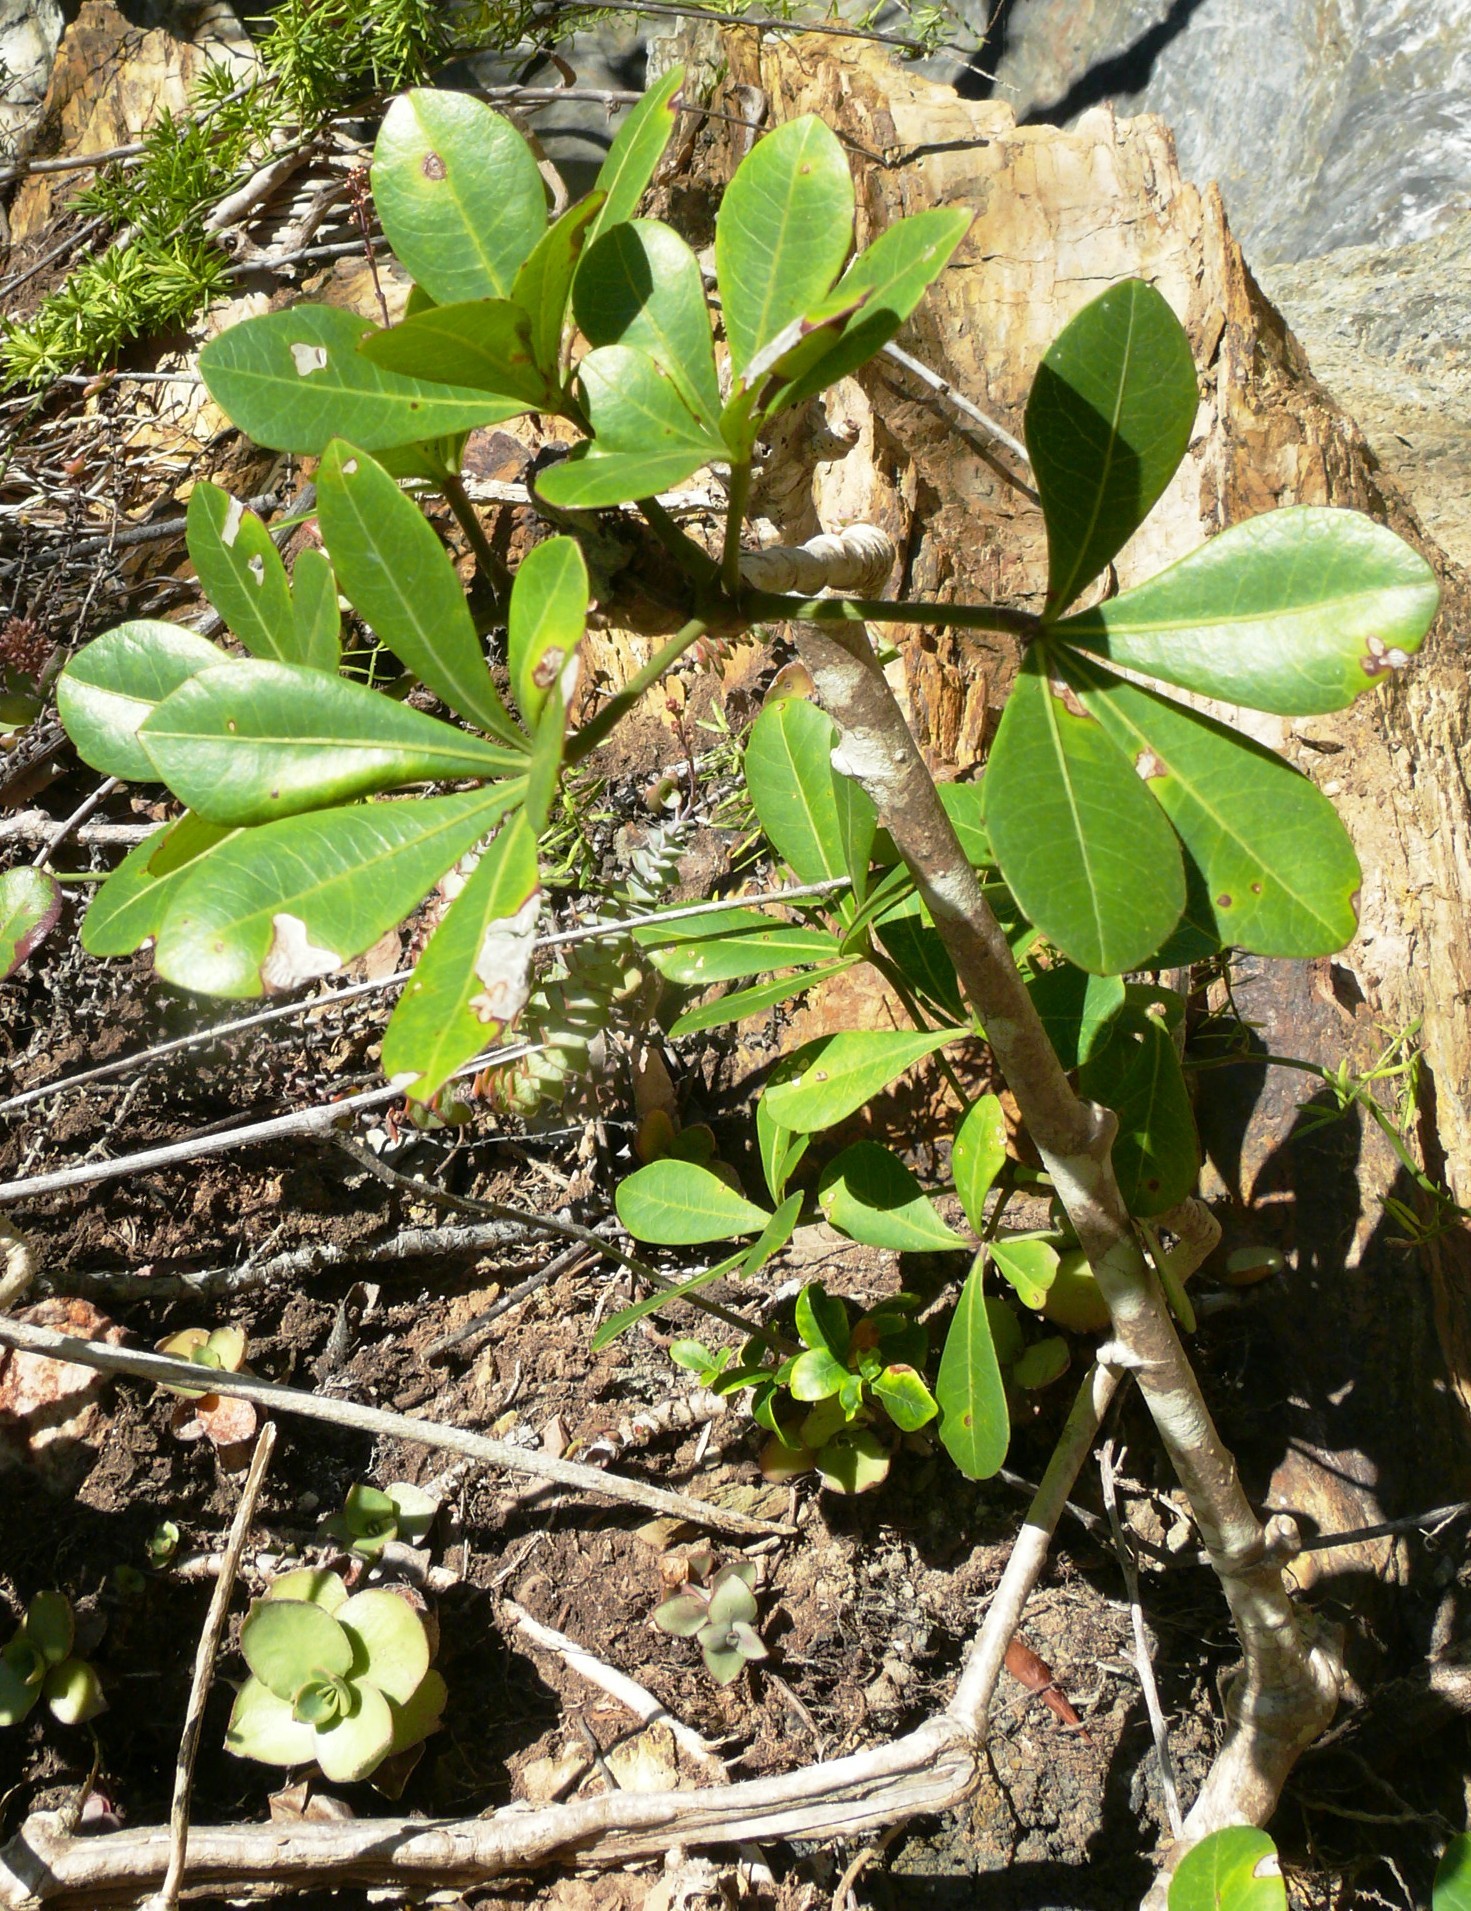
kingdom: Plantae
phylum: Tracheophyta
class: Magnoliopsida
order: Apiales
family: Araliaceae
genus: Cussonia
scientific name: Cussonia thyrsiflora
